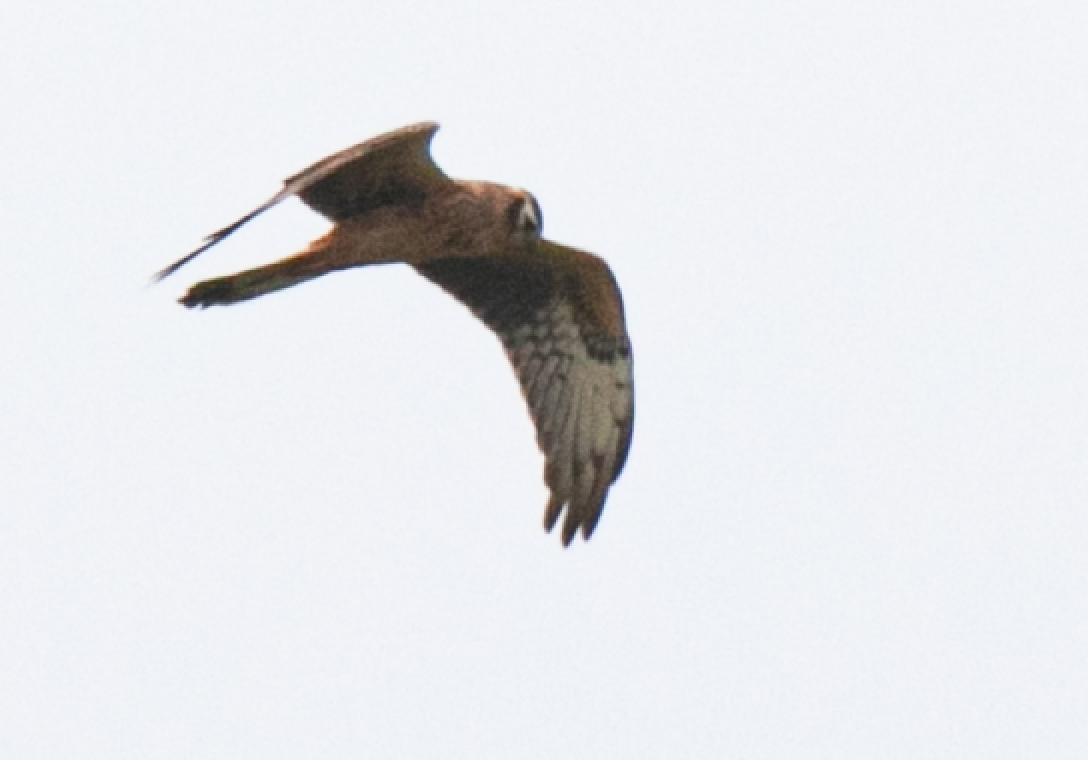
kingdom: Animalia
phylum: Chordata
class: Aves
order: Accipitriformes
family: Accipitridae
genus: Circus
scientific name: Circus pygargus
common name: Montagu's harrier
